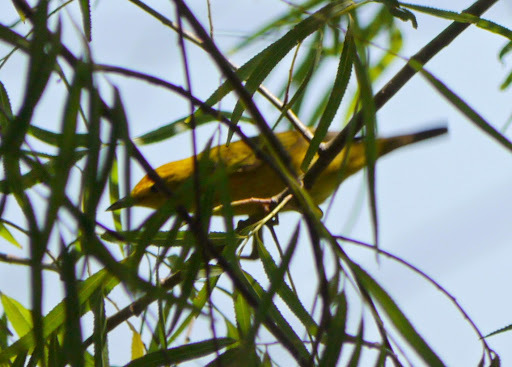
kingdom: Animalia
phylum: Chordata
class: Aves
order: Passeriformes
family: Parulidae
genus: Setophaga
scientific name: Setophaga petechia
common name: Yellow warbler
